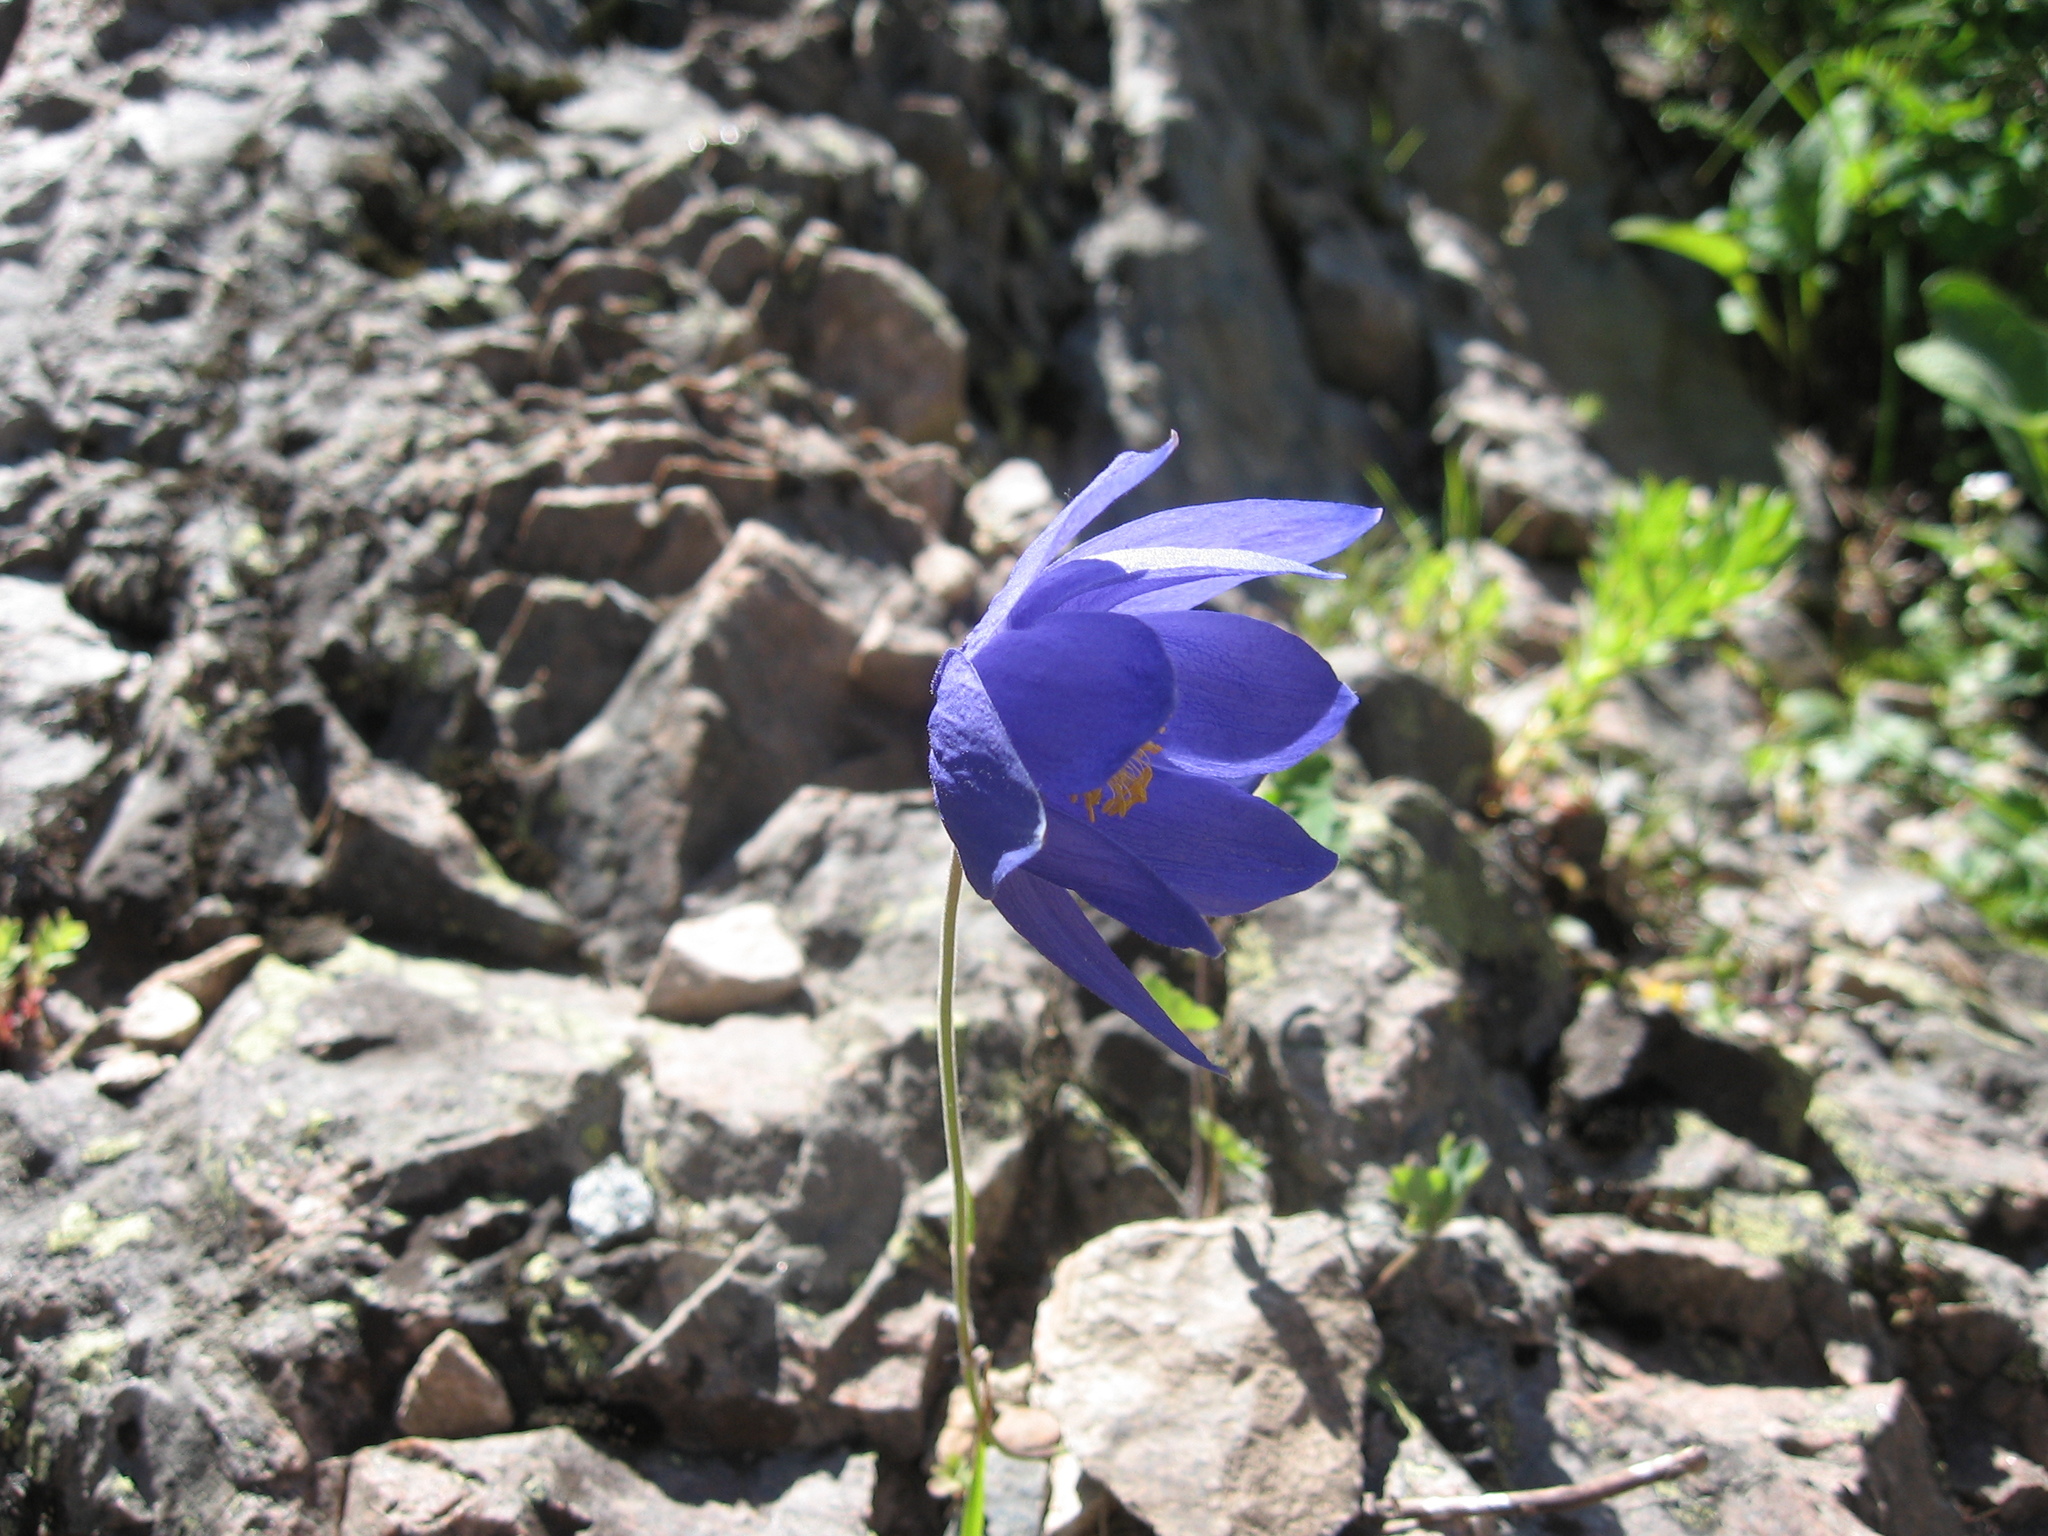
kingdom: Plantae
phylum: Tracheophyta
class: Magnoliopsida
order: Ranunculales
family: Ranunculaceae
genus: Aquilegia
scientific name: Aquilegia glandulosa
